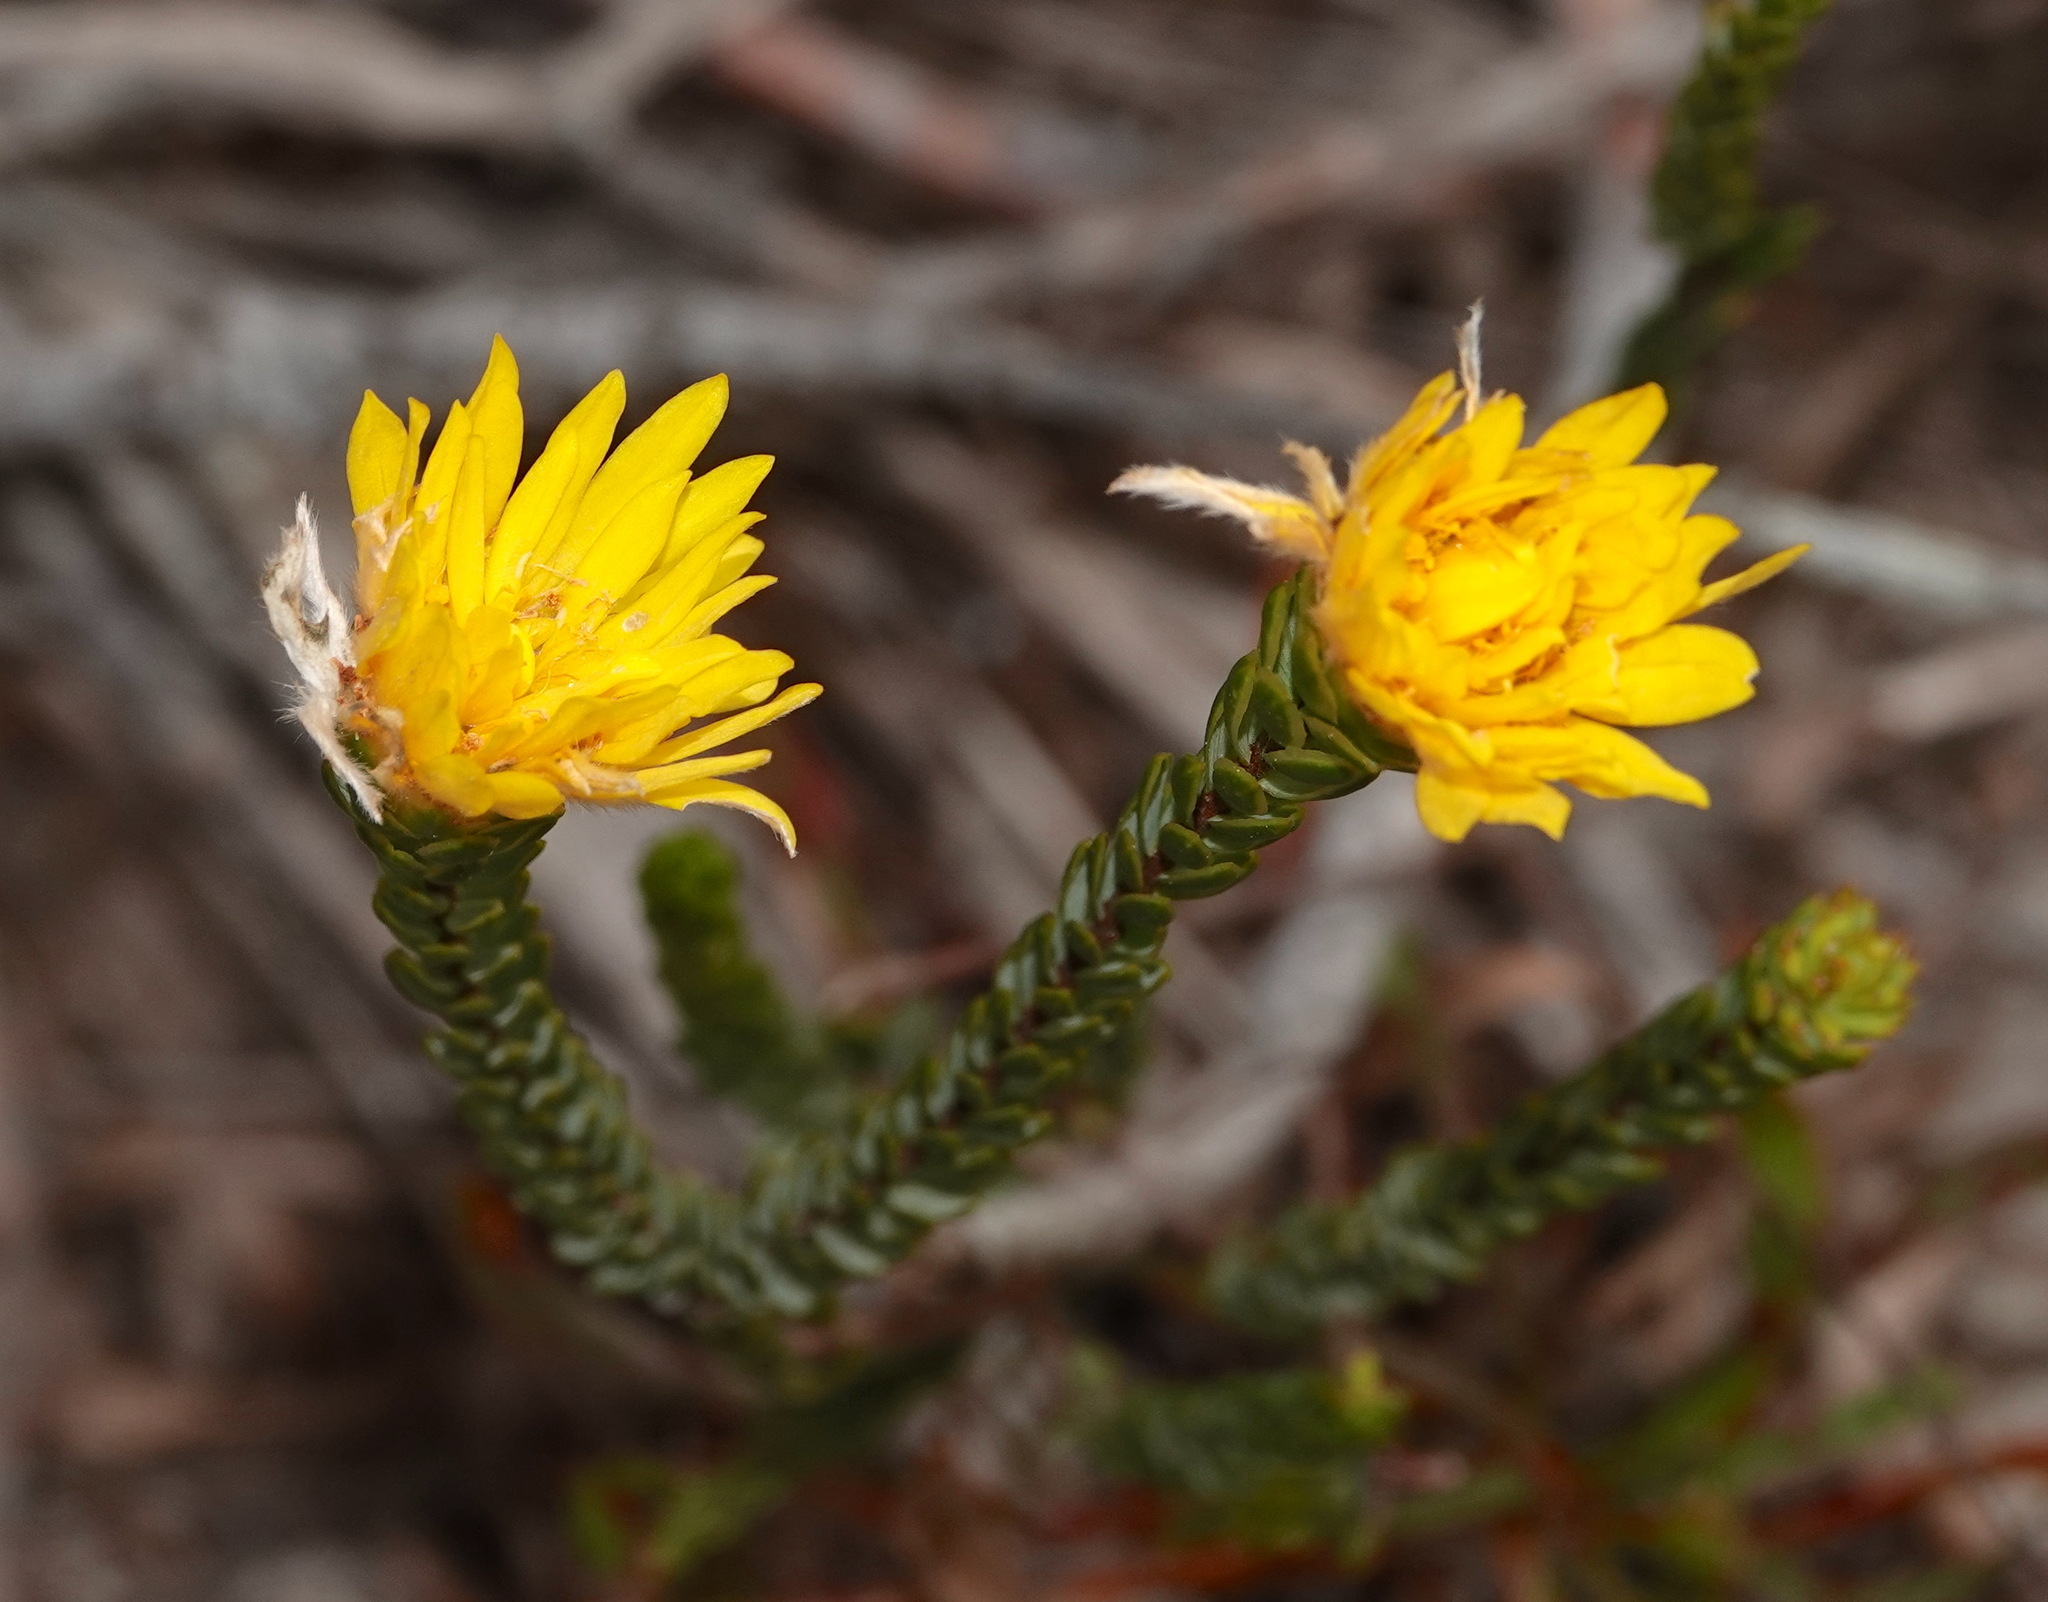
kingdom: Plantae
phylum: Tracheophyta
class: Magnoliopsida
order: Malvales
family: Thymelaeaceae
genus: Lachnaea
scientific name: Lachnaea aurea
